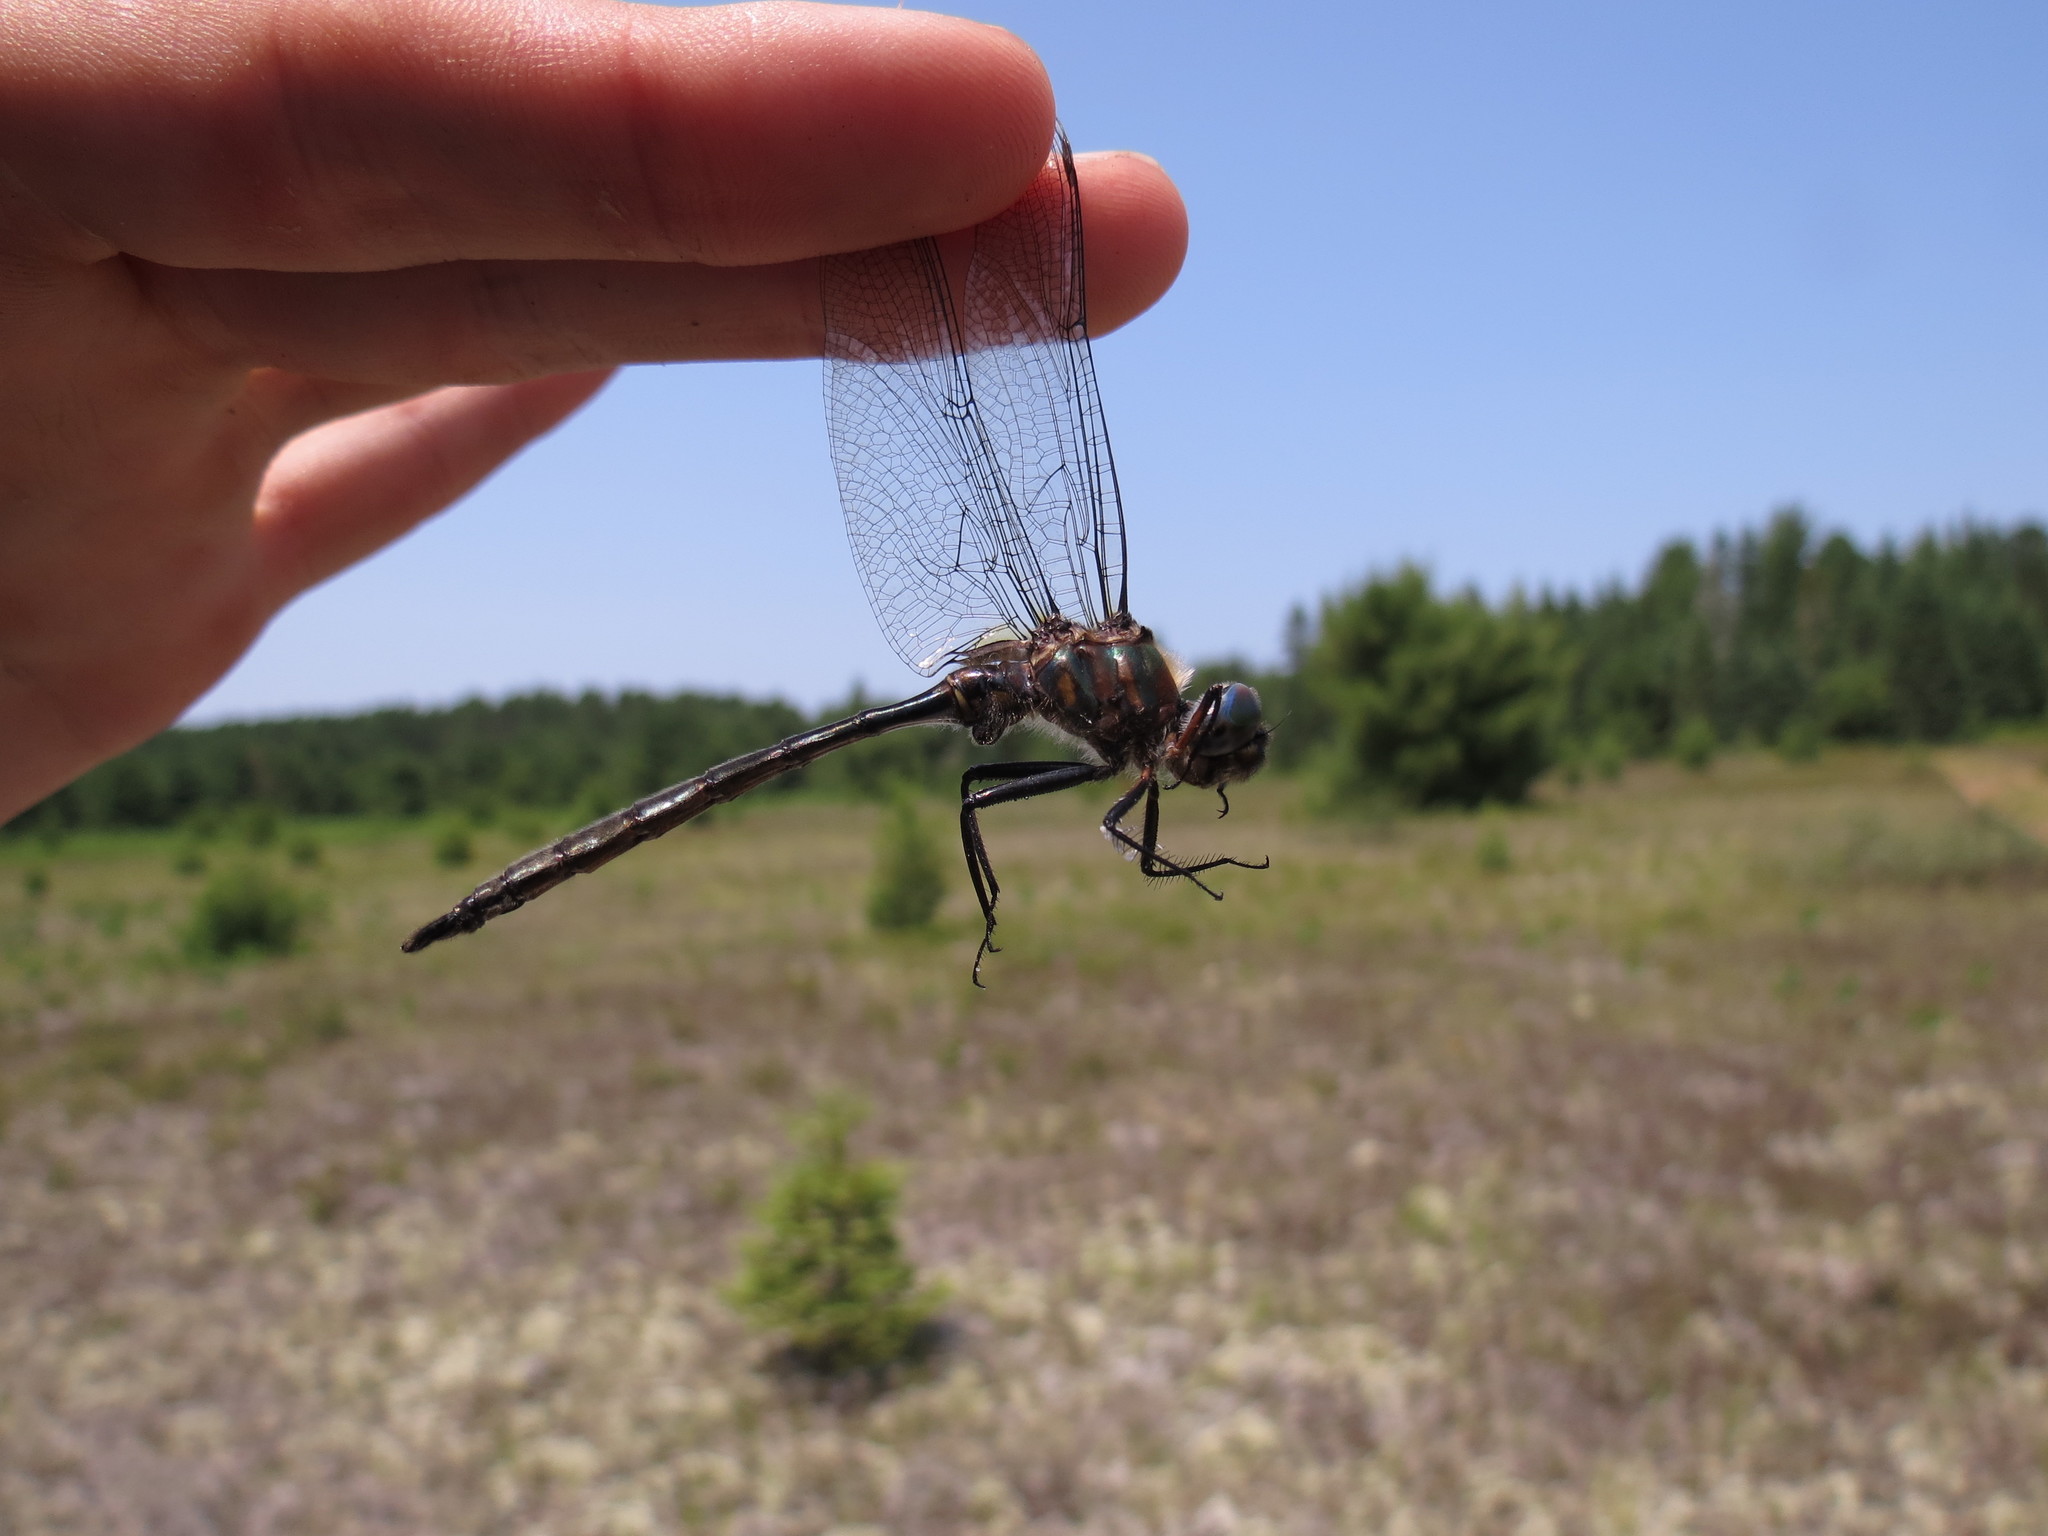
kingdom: Animalia
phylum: Arthropoda
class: Insecta
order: Odonata
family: Corduliidae
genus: Somatochlora
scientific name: Somatochlora williamsoni
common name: Williamson's emerald
